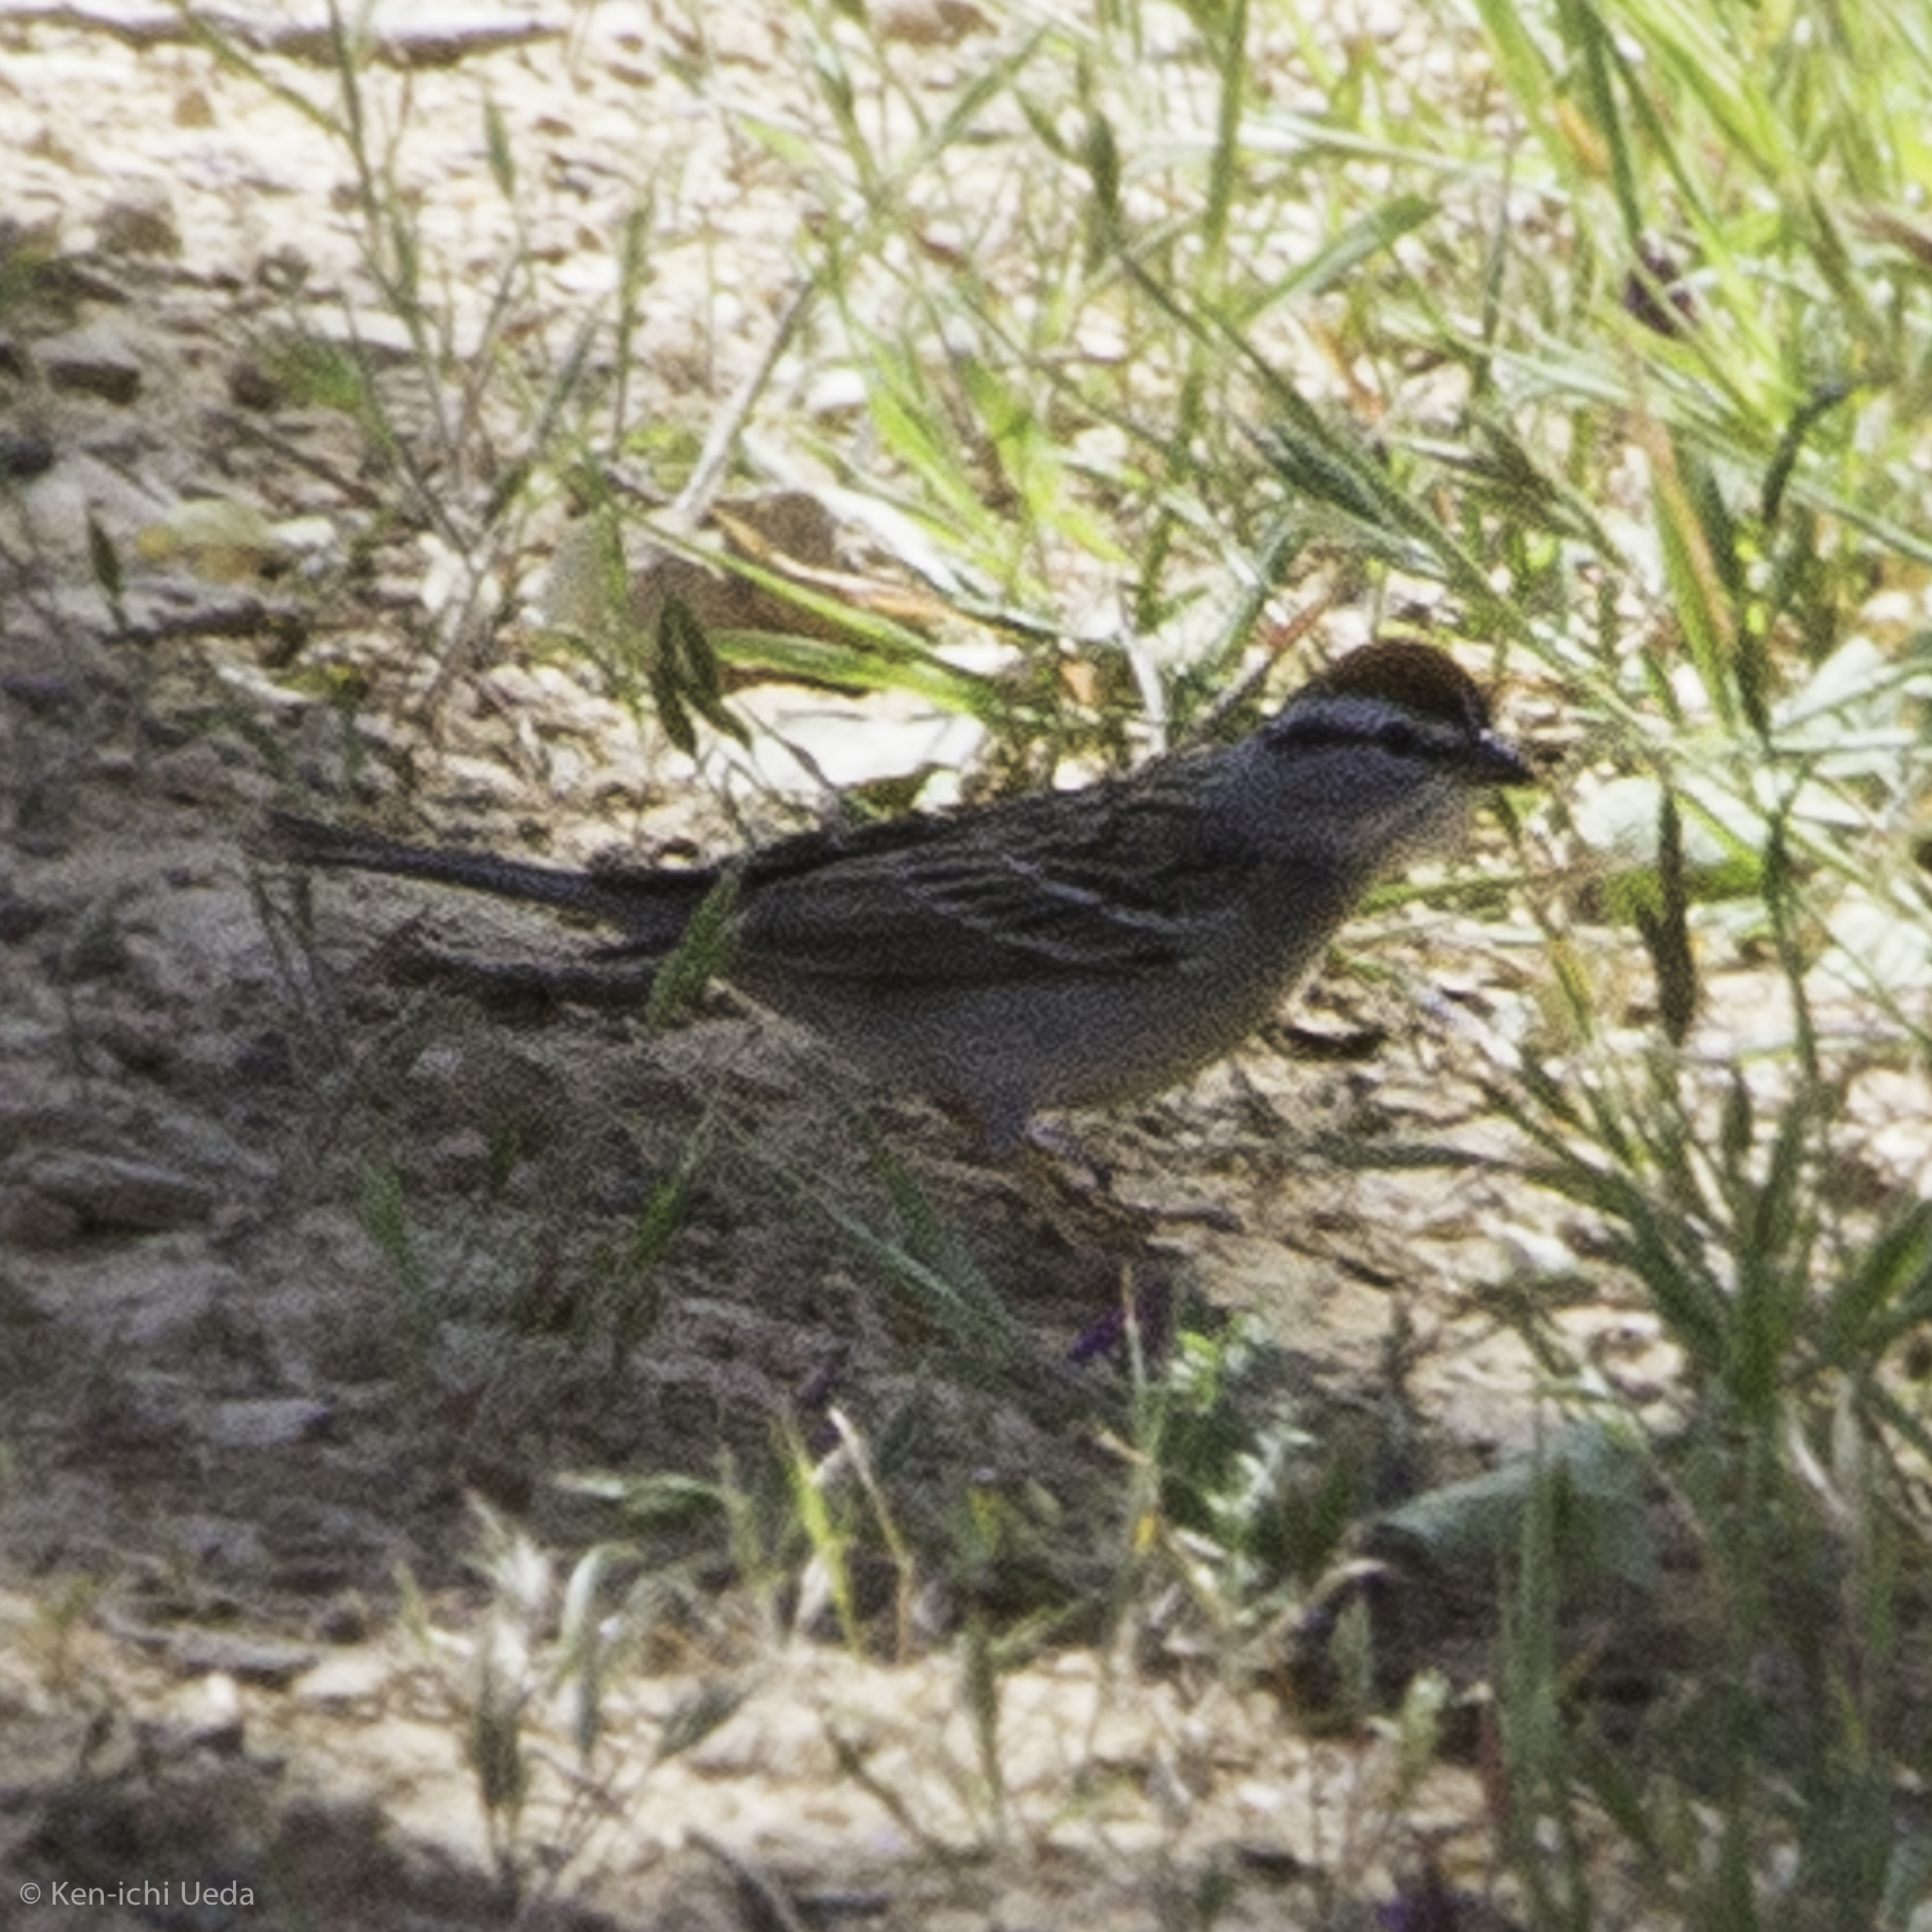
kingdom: Animalia
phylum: Chordata
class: Aves
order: Passeriformes
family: Passerellidae
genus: Spizella
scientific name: Spizella passerina
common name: Chipping sparrow
